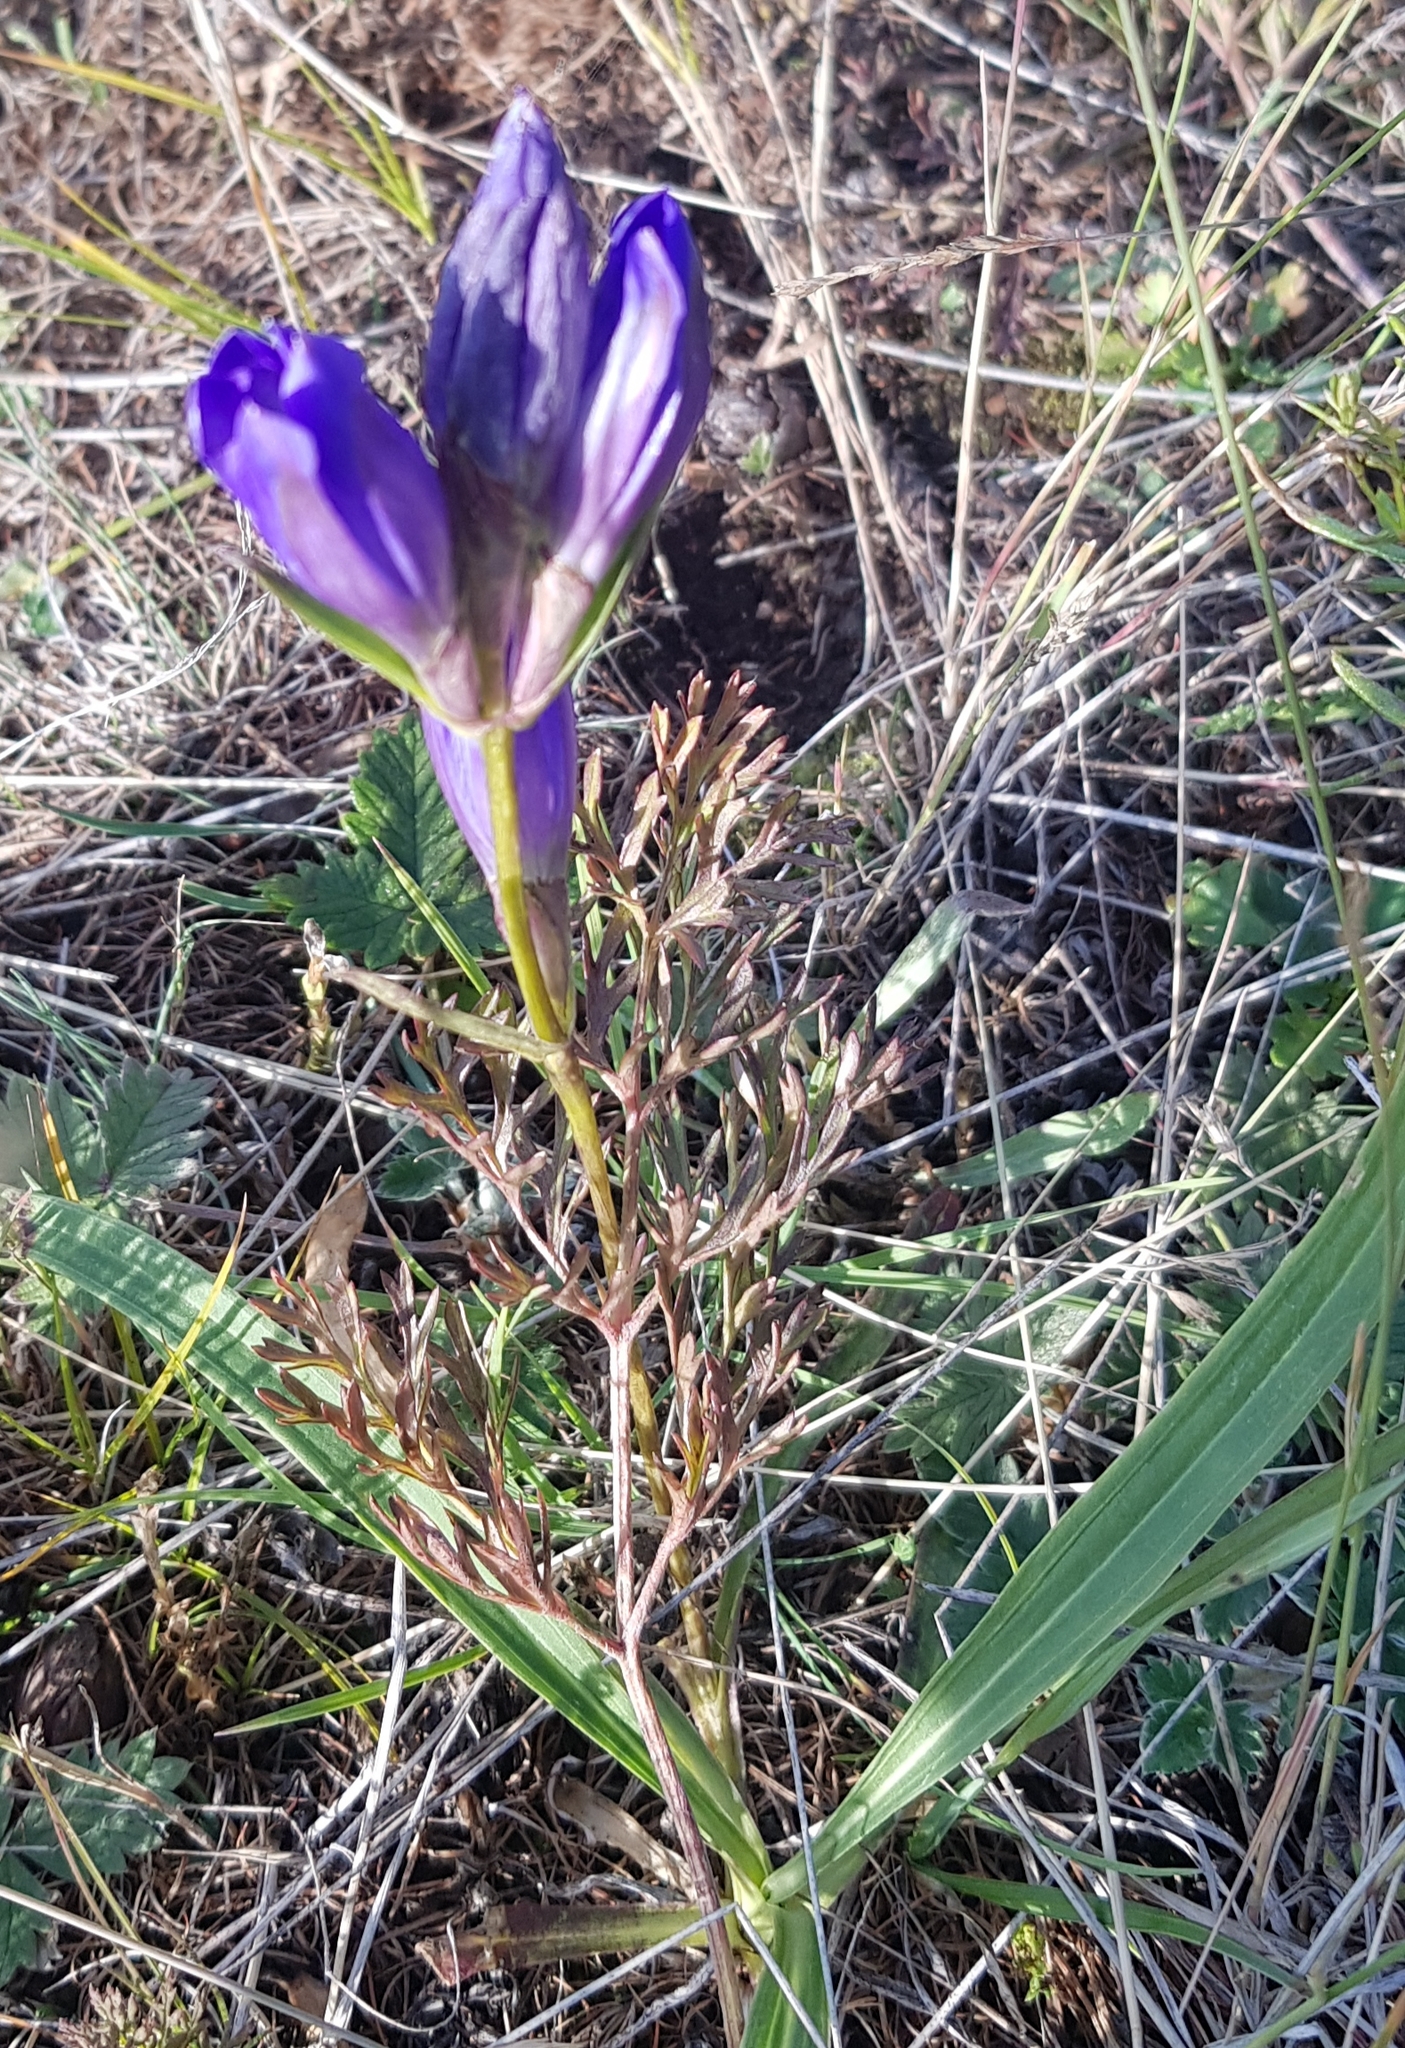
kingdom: Plantae
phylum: Tracheophyta
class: Magnoliopsida
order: Gentianales
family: Gentianaceae
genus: Gentiana
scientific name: Gentiana decumbens
